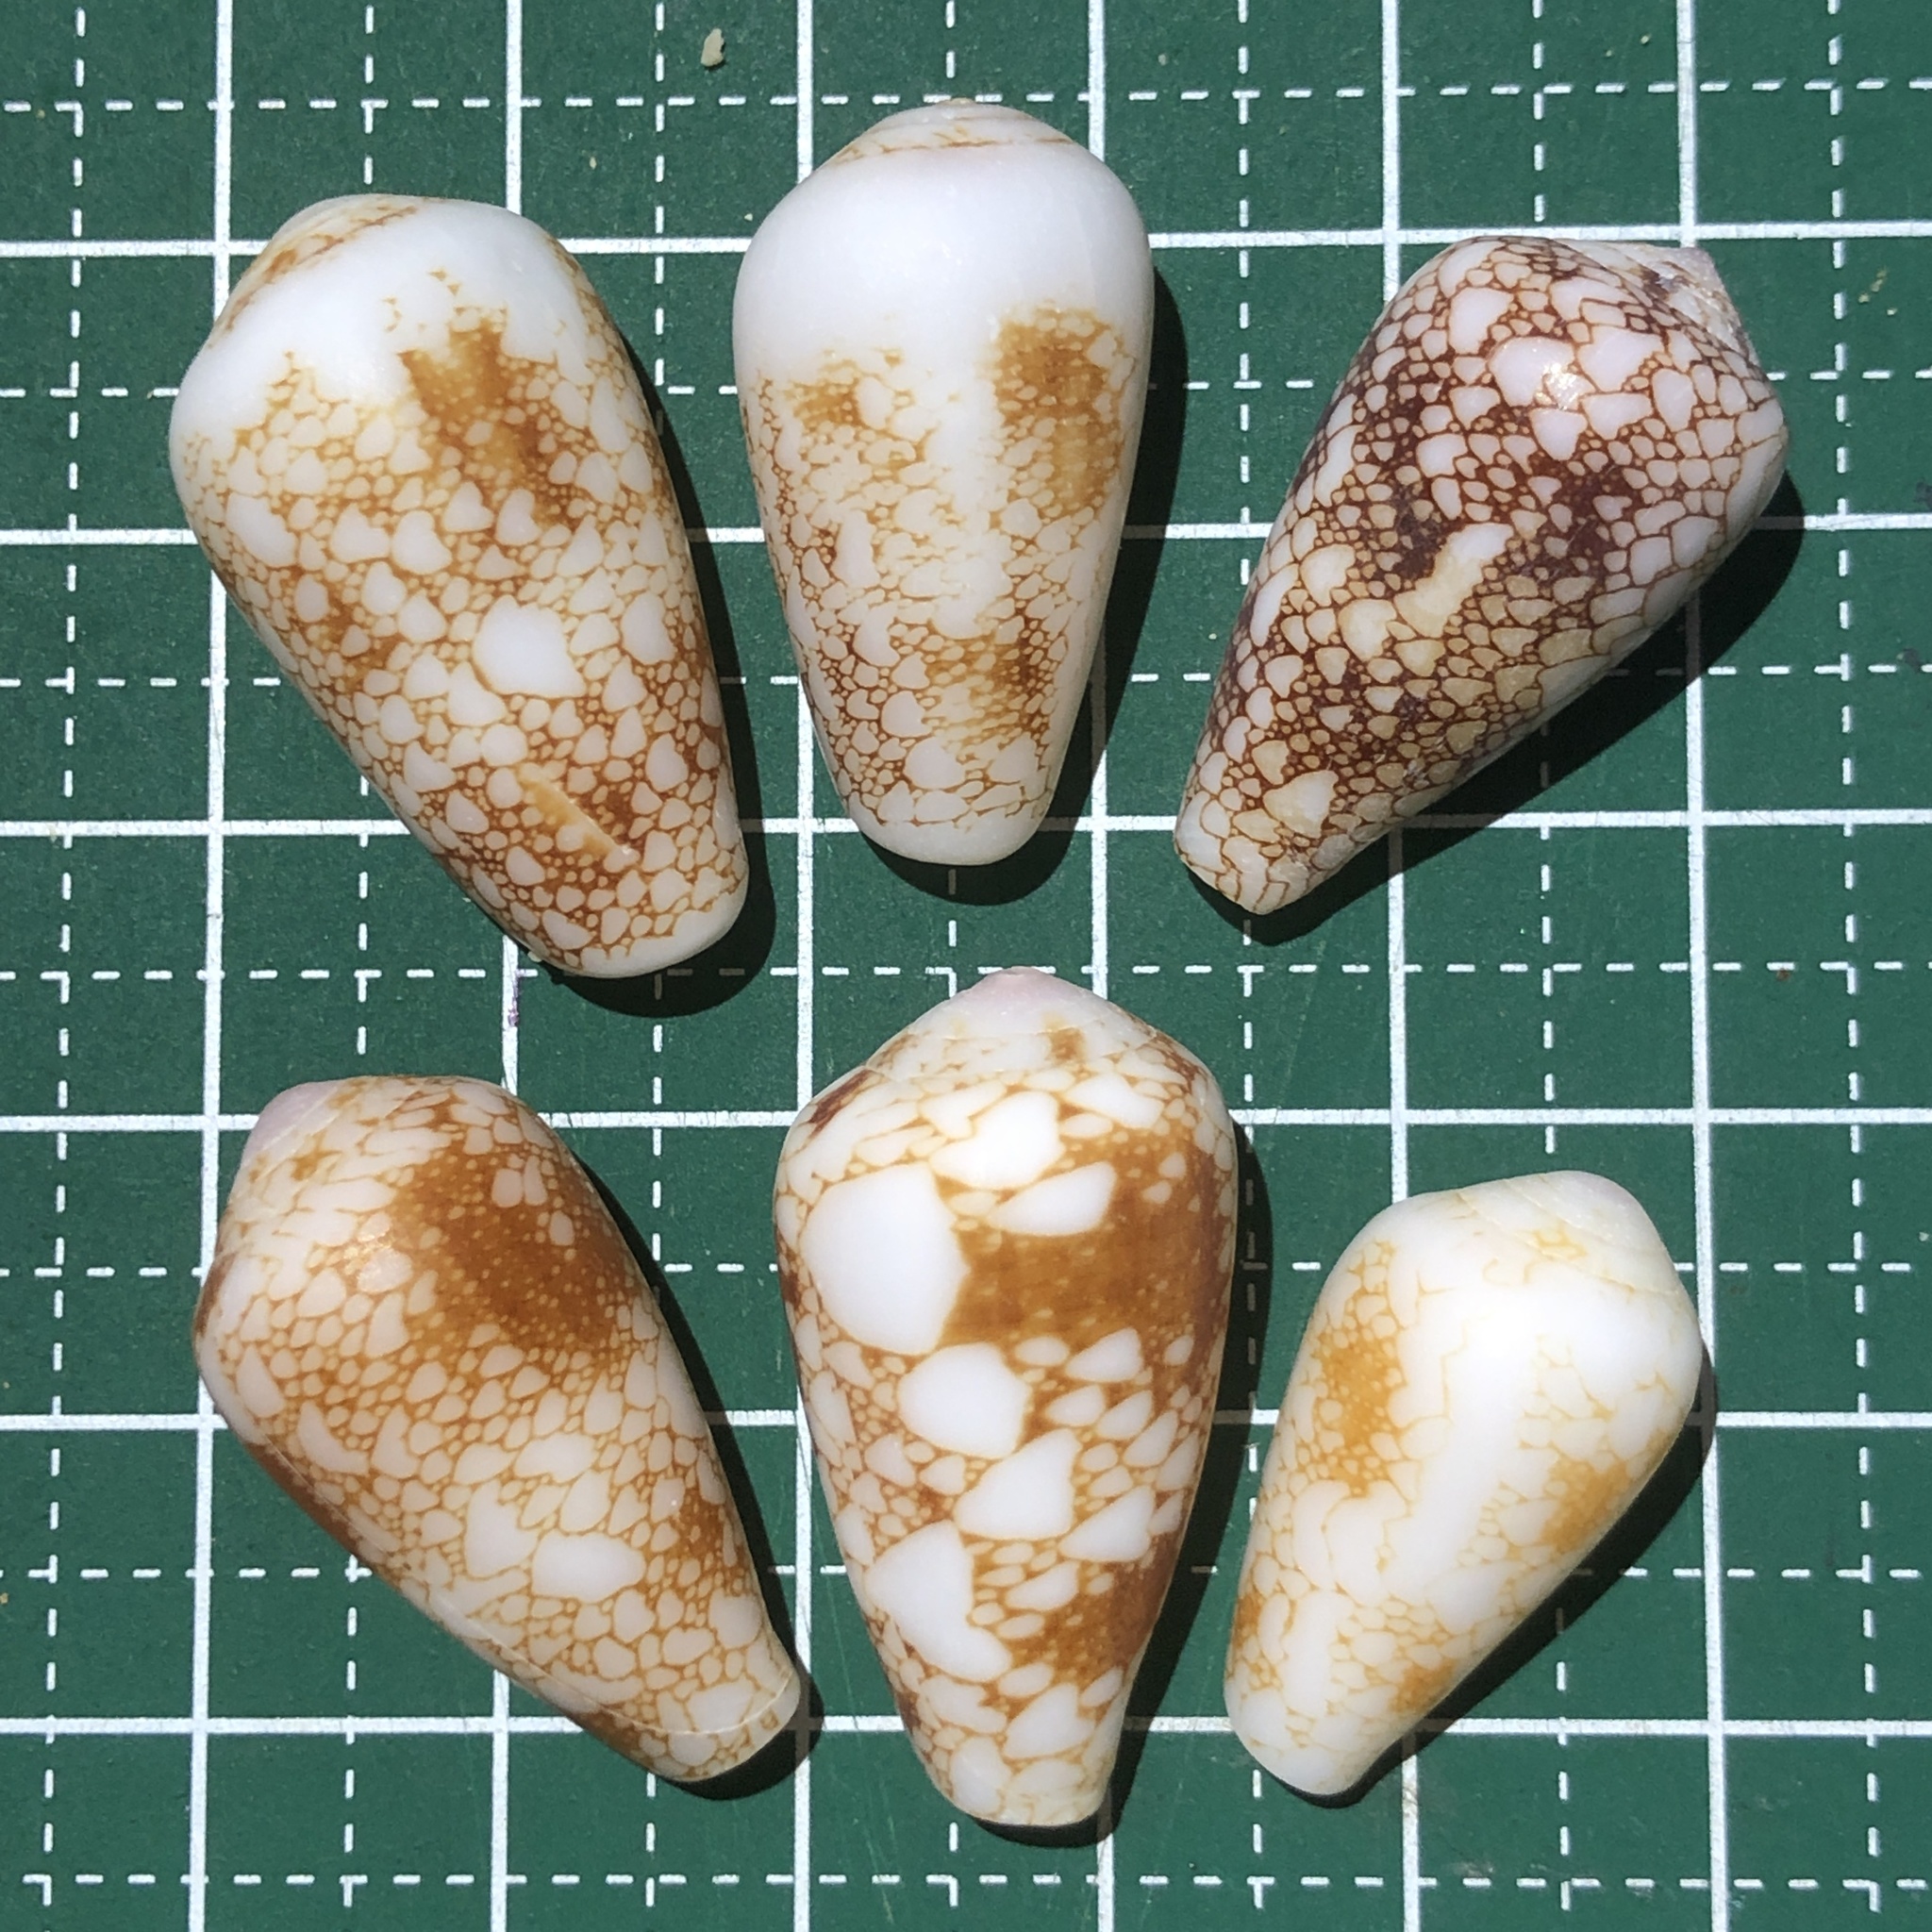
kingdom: Animalia
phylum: Mollusca
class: Gastropoda
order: Neogastropoda
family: Conidae
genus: Conus
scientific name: Conus omaria
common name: Omaria cone
